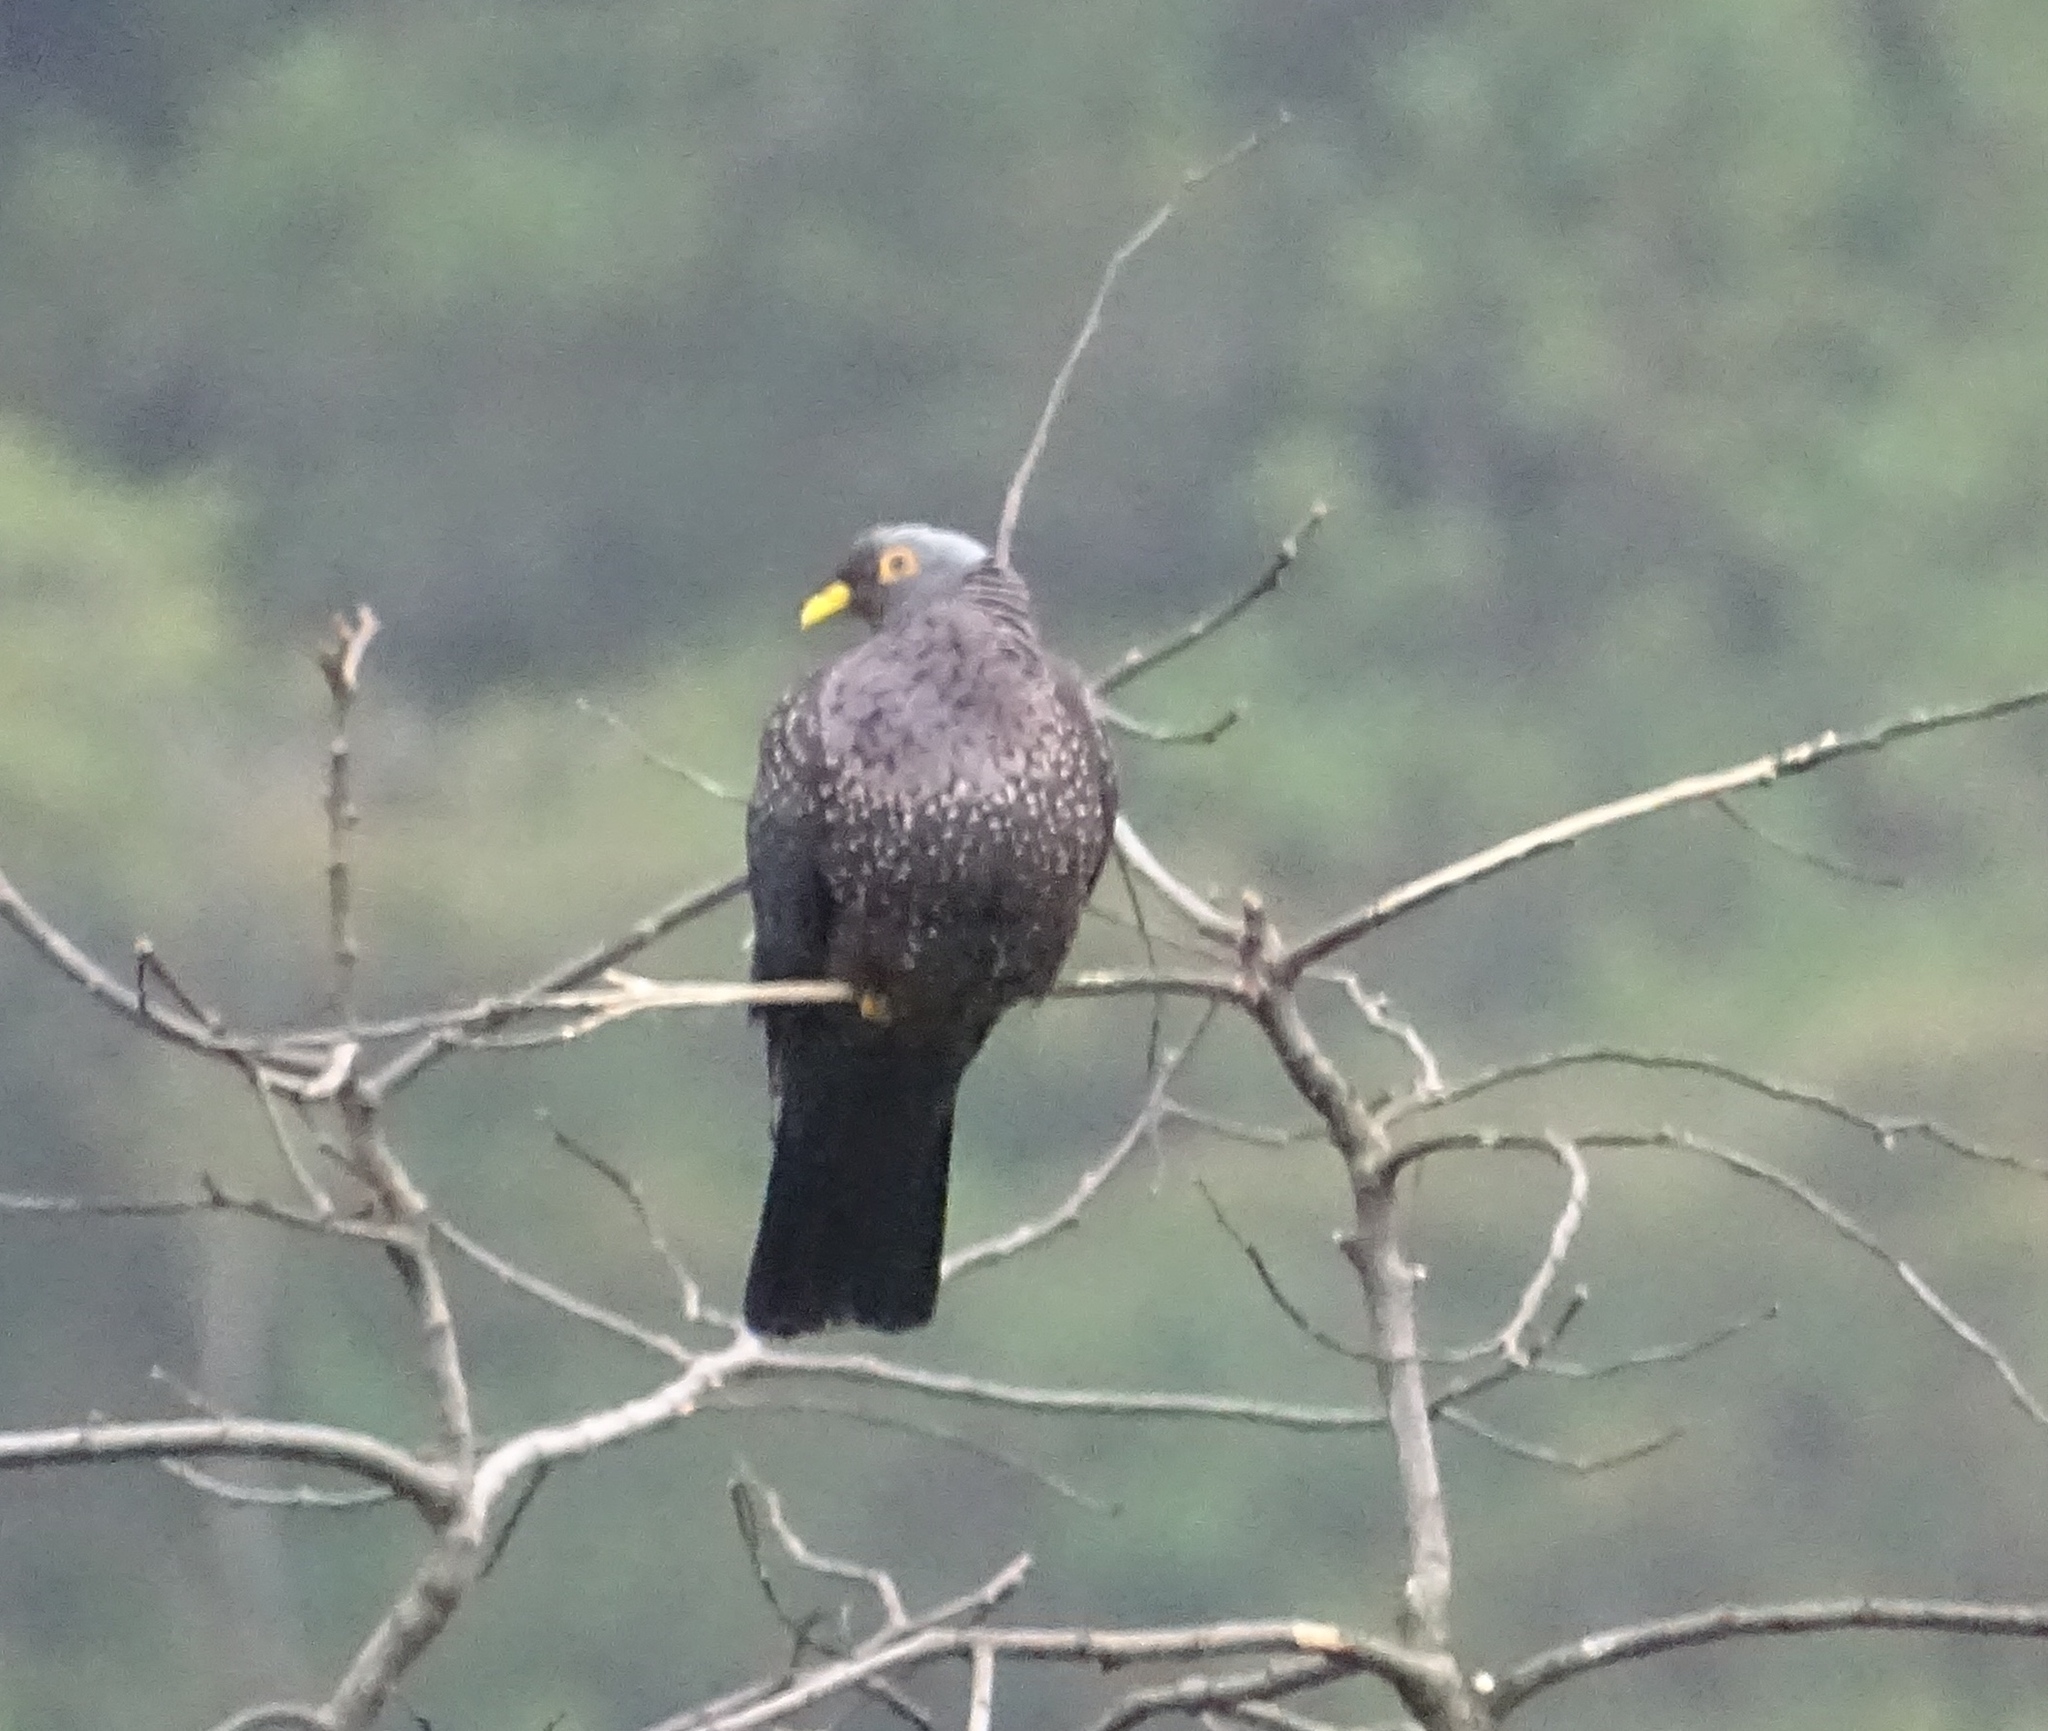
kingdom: Animalia
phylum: Chordata
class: Aves
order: Columbiformes
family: Columbidae
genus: Columba
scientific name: Columba arquatrix
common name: African olive pigeon
